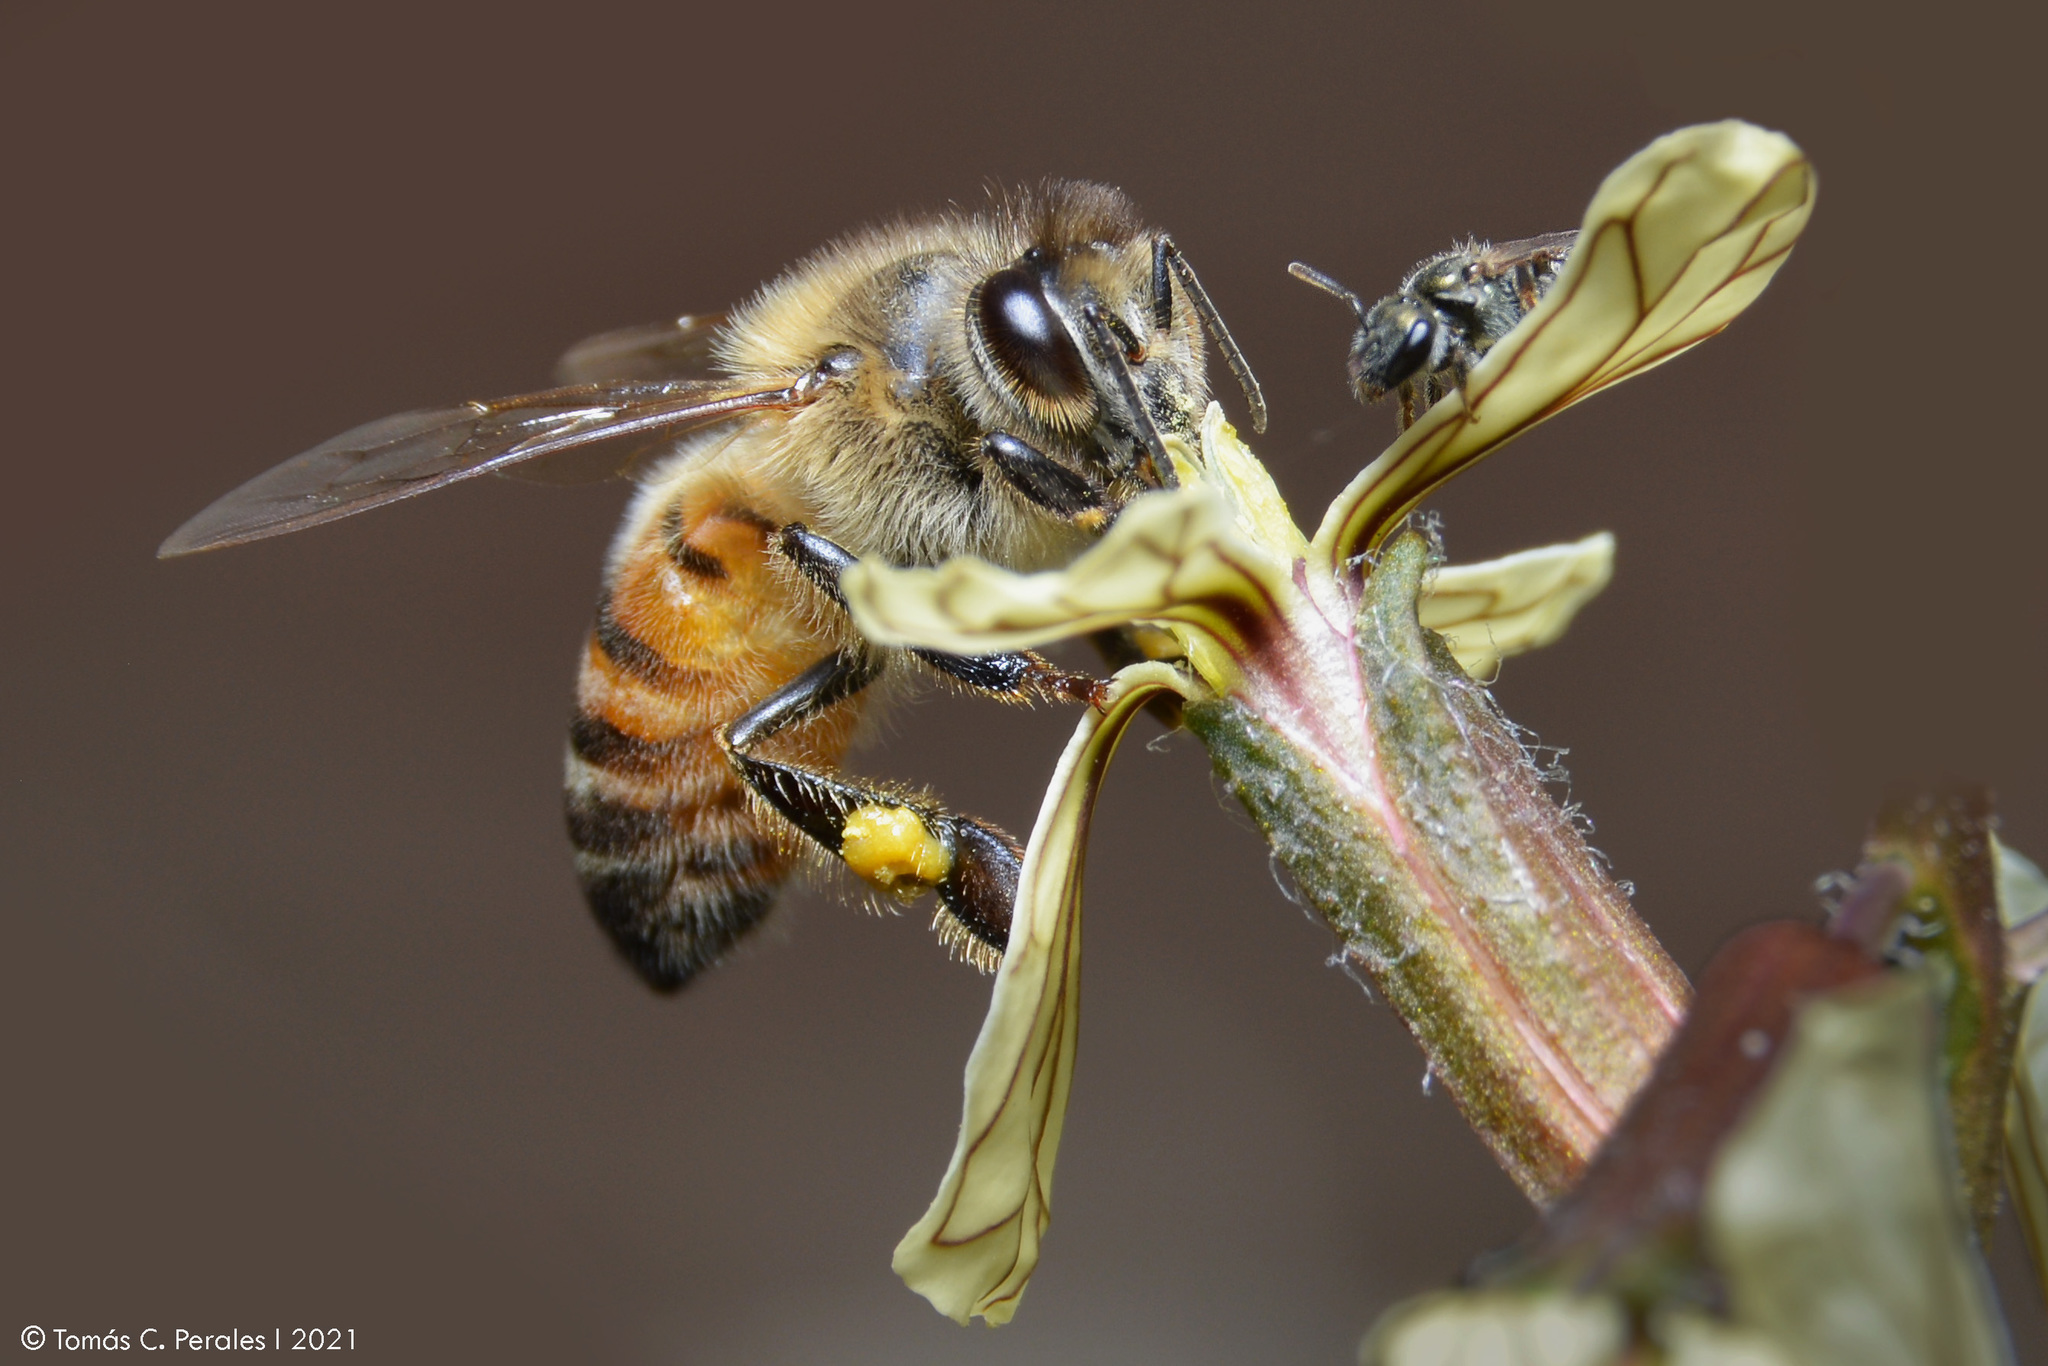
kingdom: Animalia
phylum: Arthropoda
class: Insecta
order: Hymenoptera
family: Apidae
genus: Apis
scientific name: Apis mellifera
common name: Honey bee
